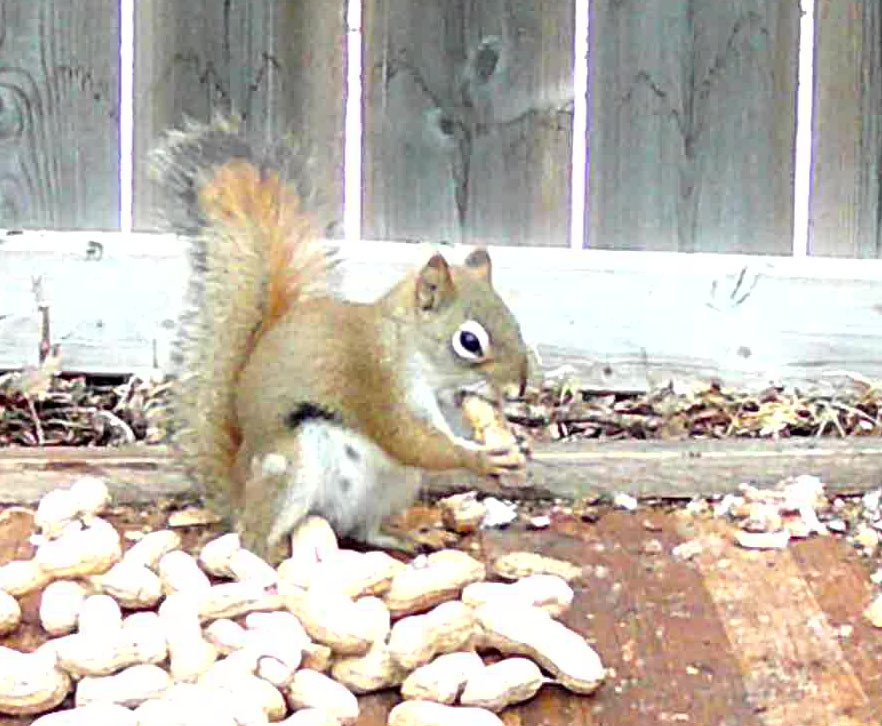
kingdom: Animalia
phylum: Chordata
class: Mammalia
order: Rodentia
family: Sciuridae
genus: Tamiasciurus
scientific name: Tamiasciurus hudsonicus
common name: Red squirrel
